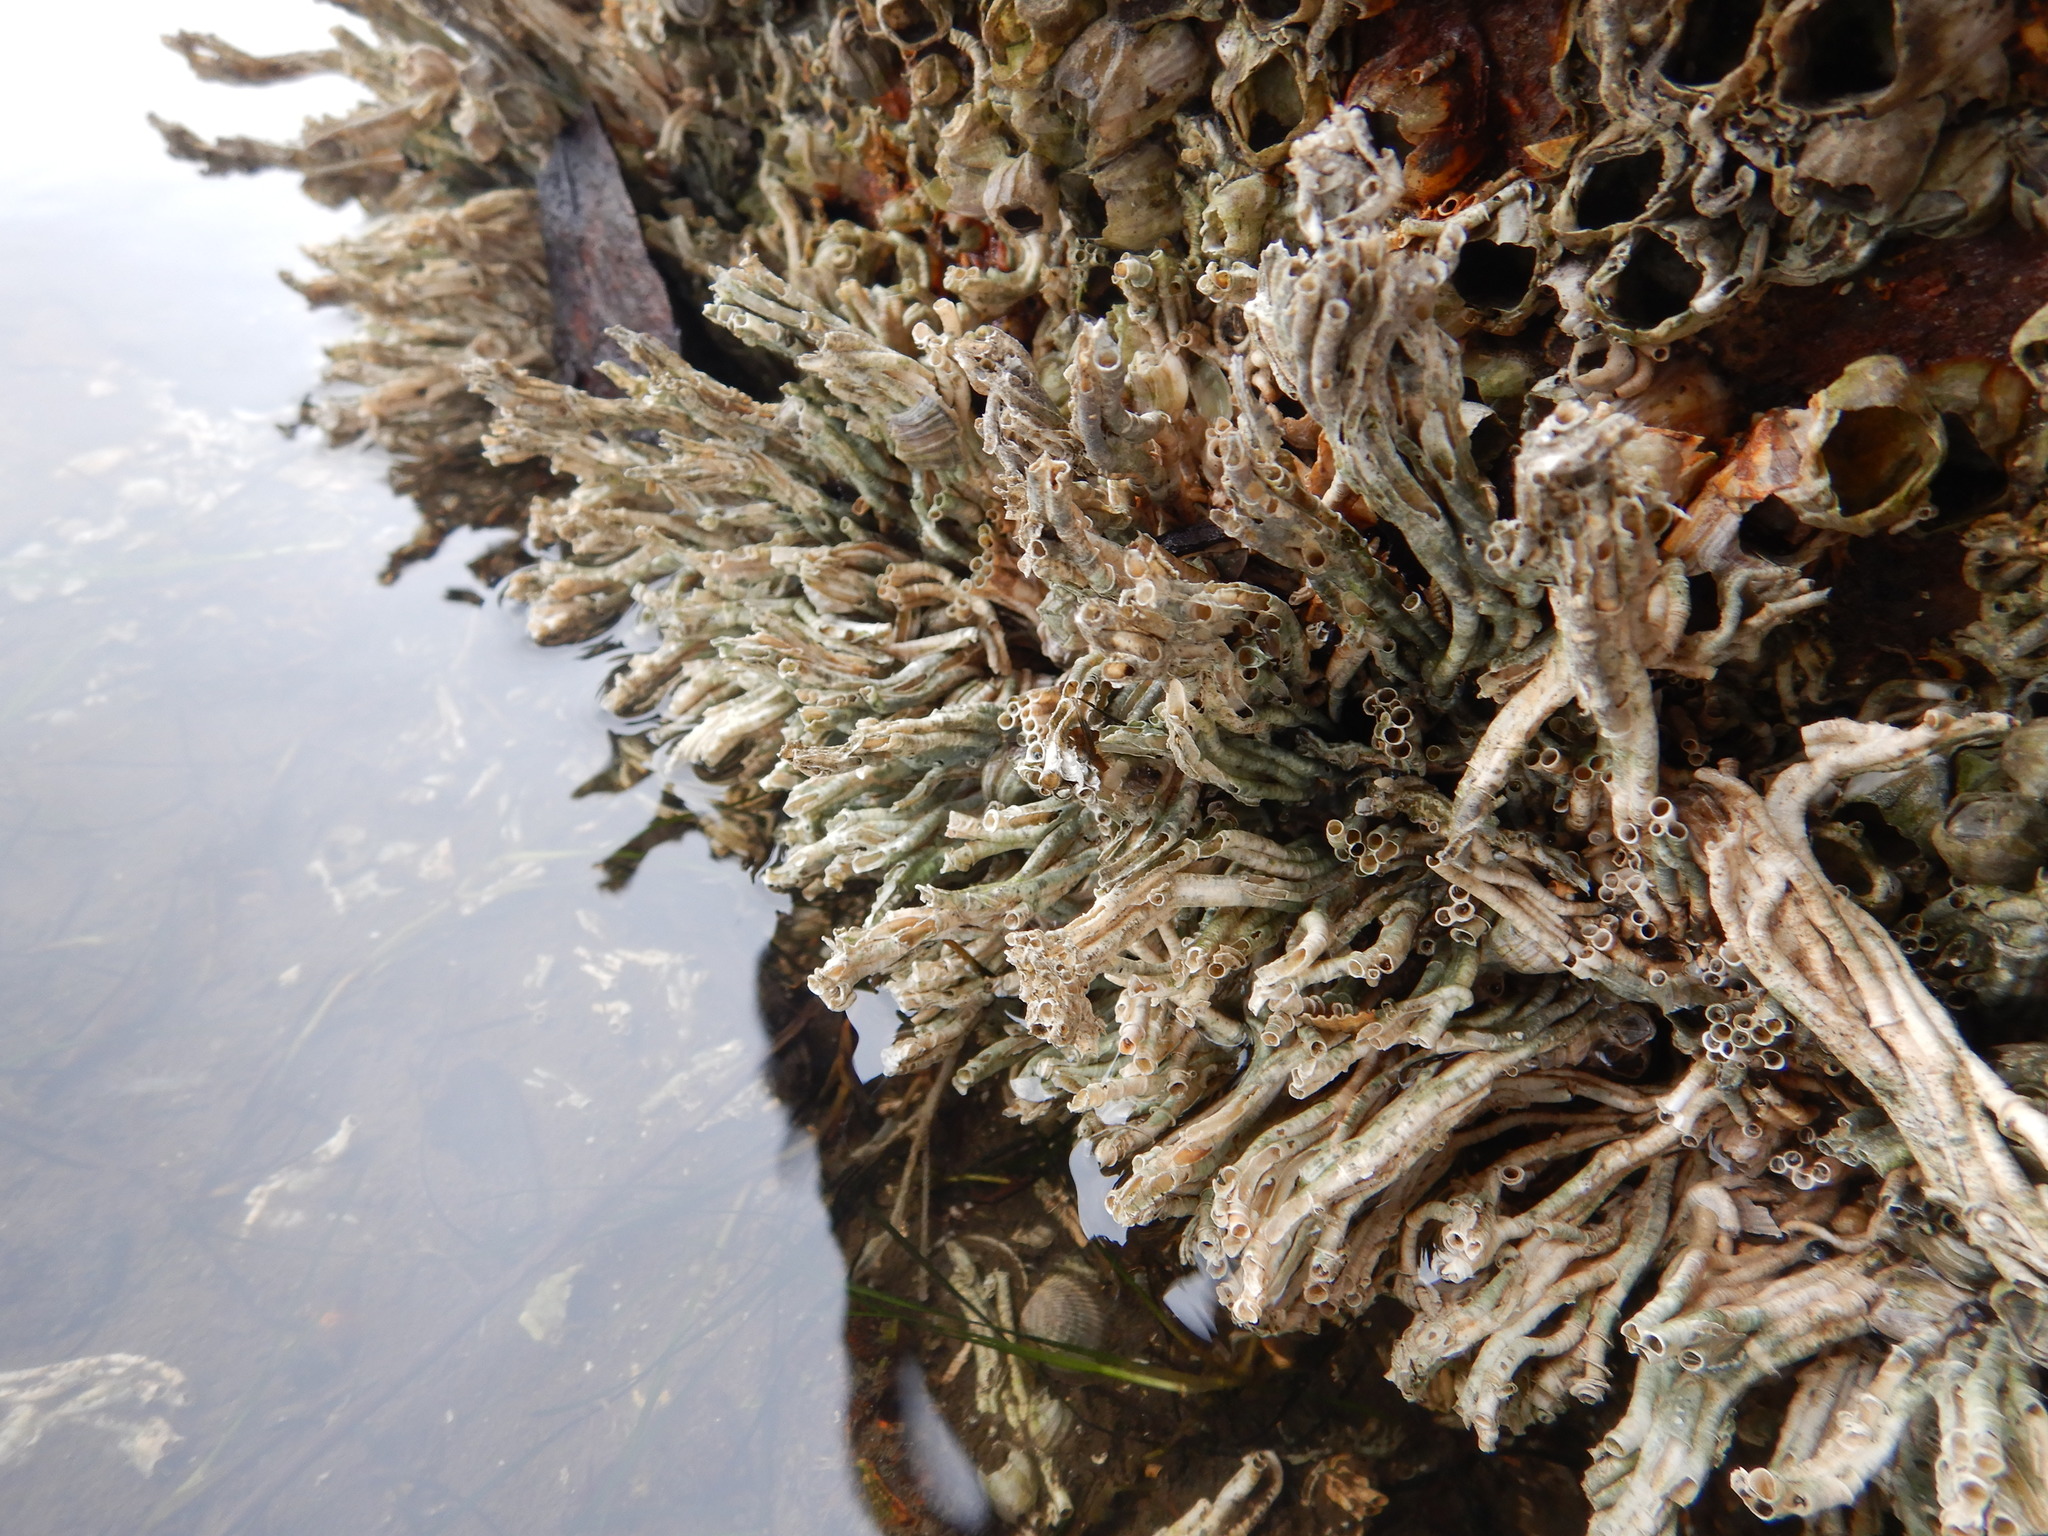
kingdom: Animalia
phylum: Annelida
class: Polychaeta
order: Sabellida
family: Serpulidae
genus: Ficopomatus
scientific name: Ficopomatus enigmaticus
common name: Australian tubeworm
